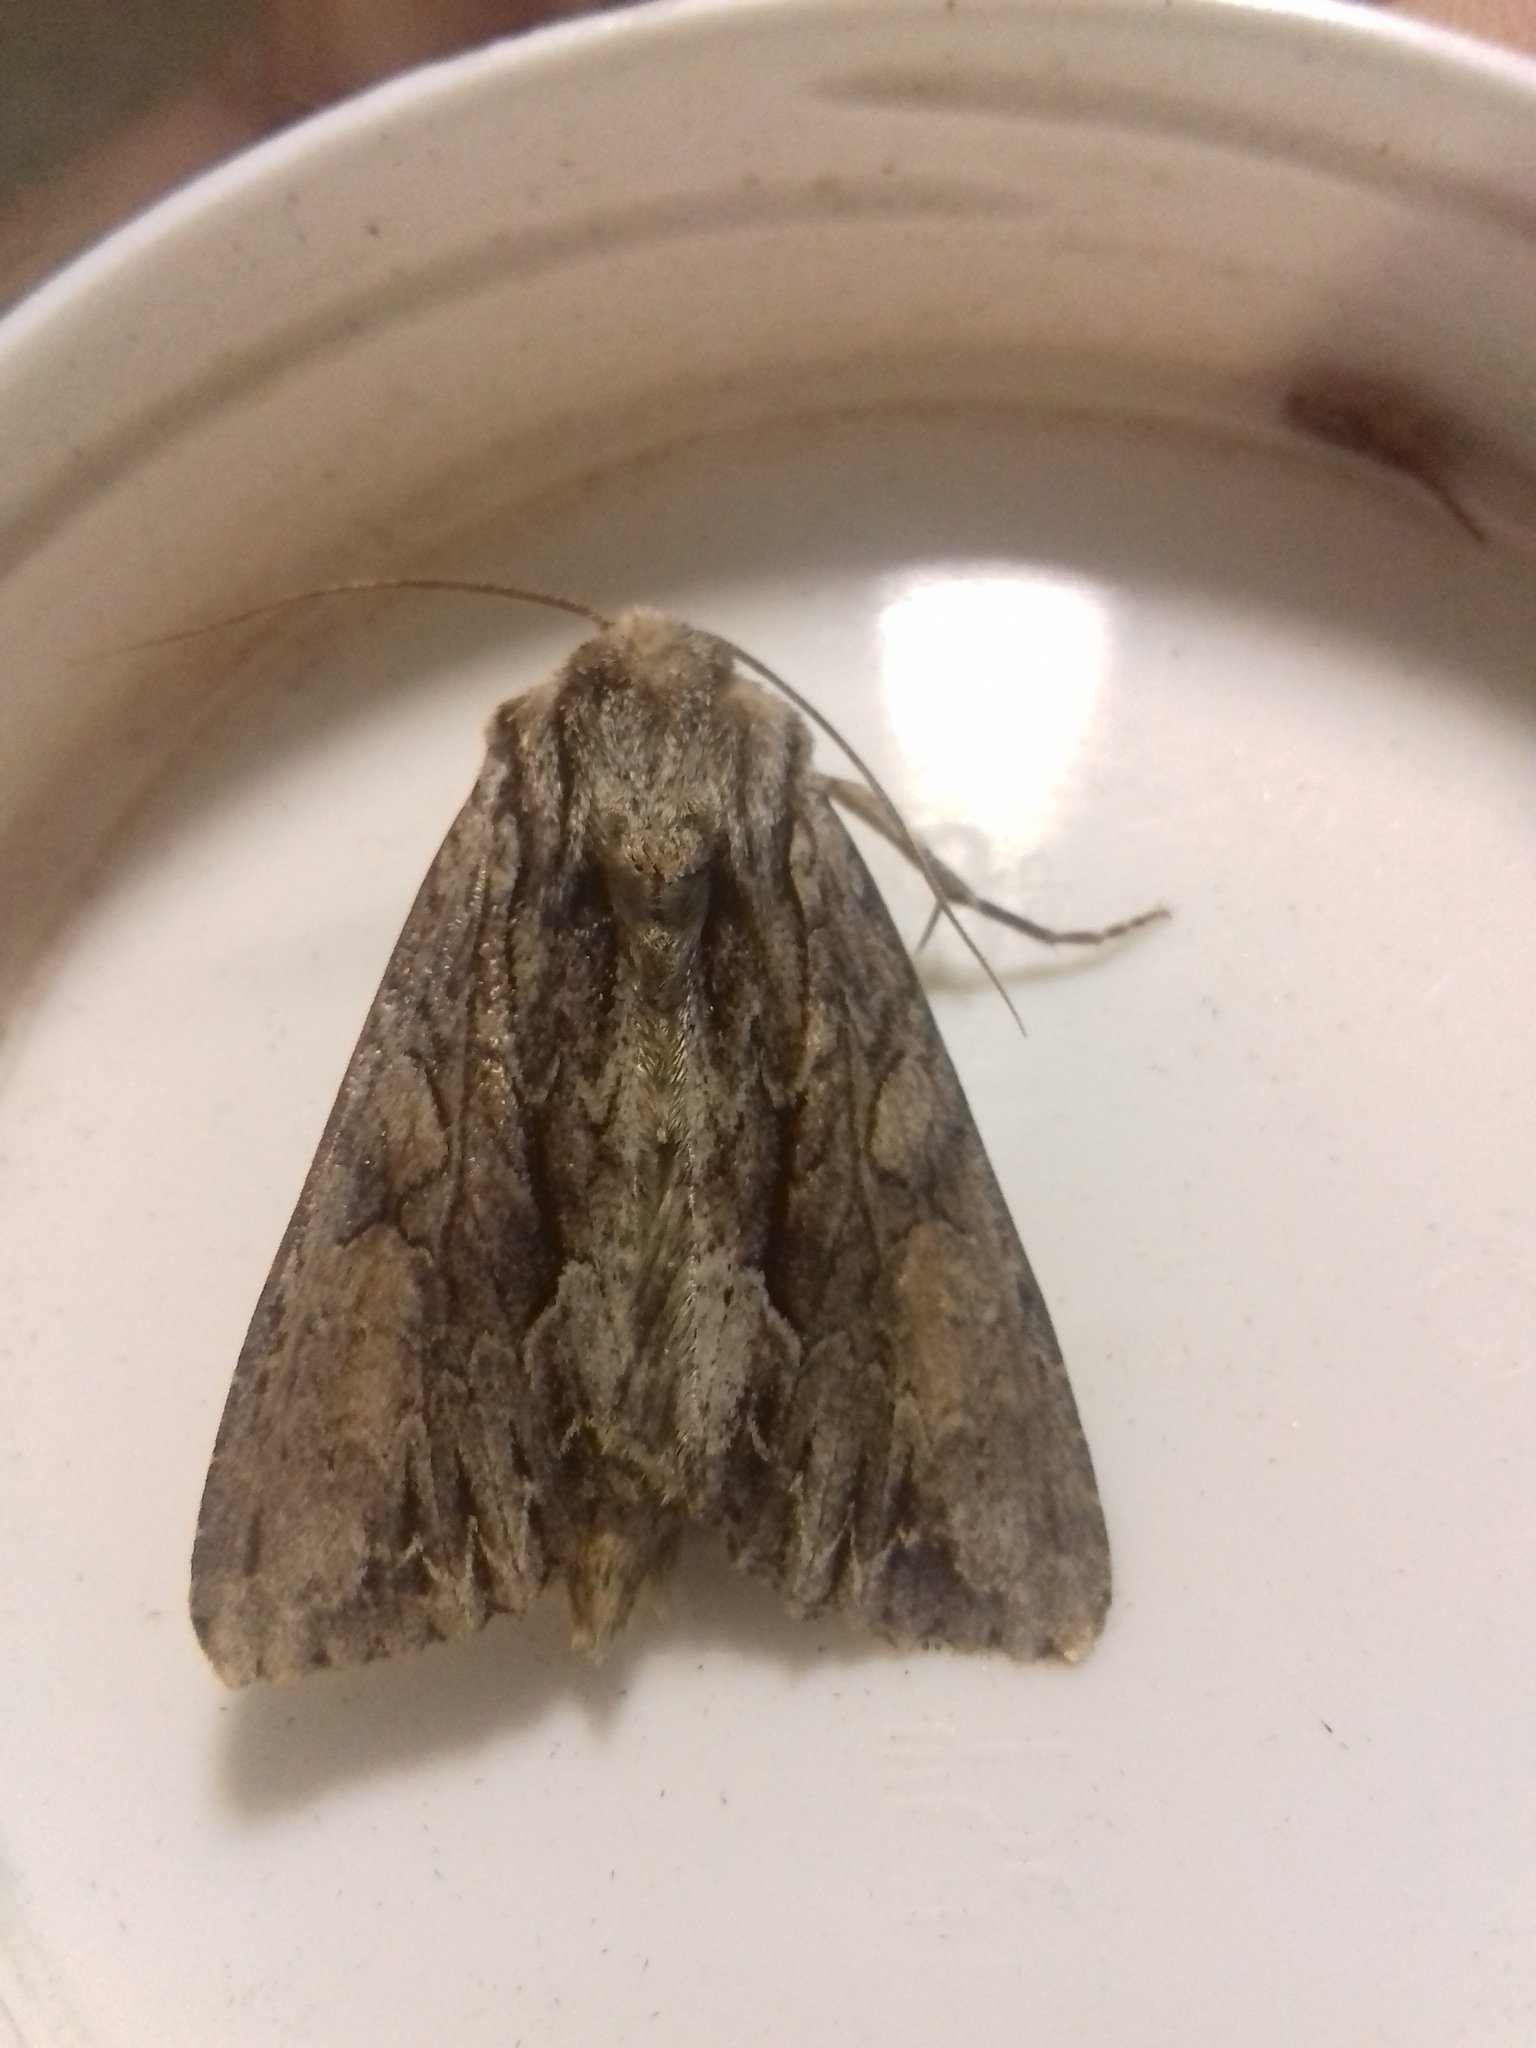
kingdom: Animalia
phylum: Arthropoda
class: Insecta
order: Lepidoptera
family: Noctuidae
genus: Apamea
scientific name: Apamea monoglypha
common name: Dark arches
